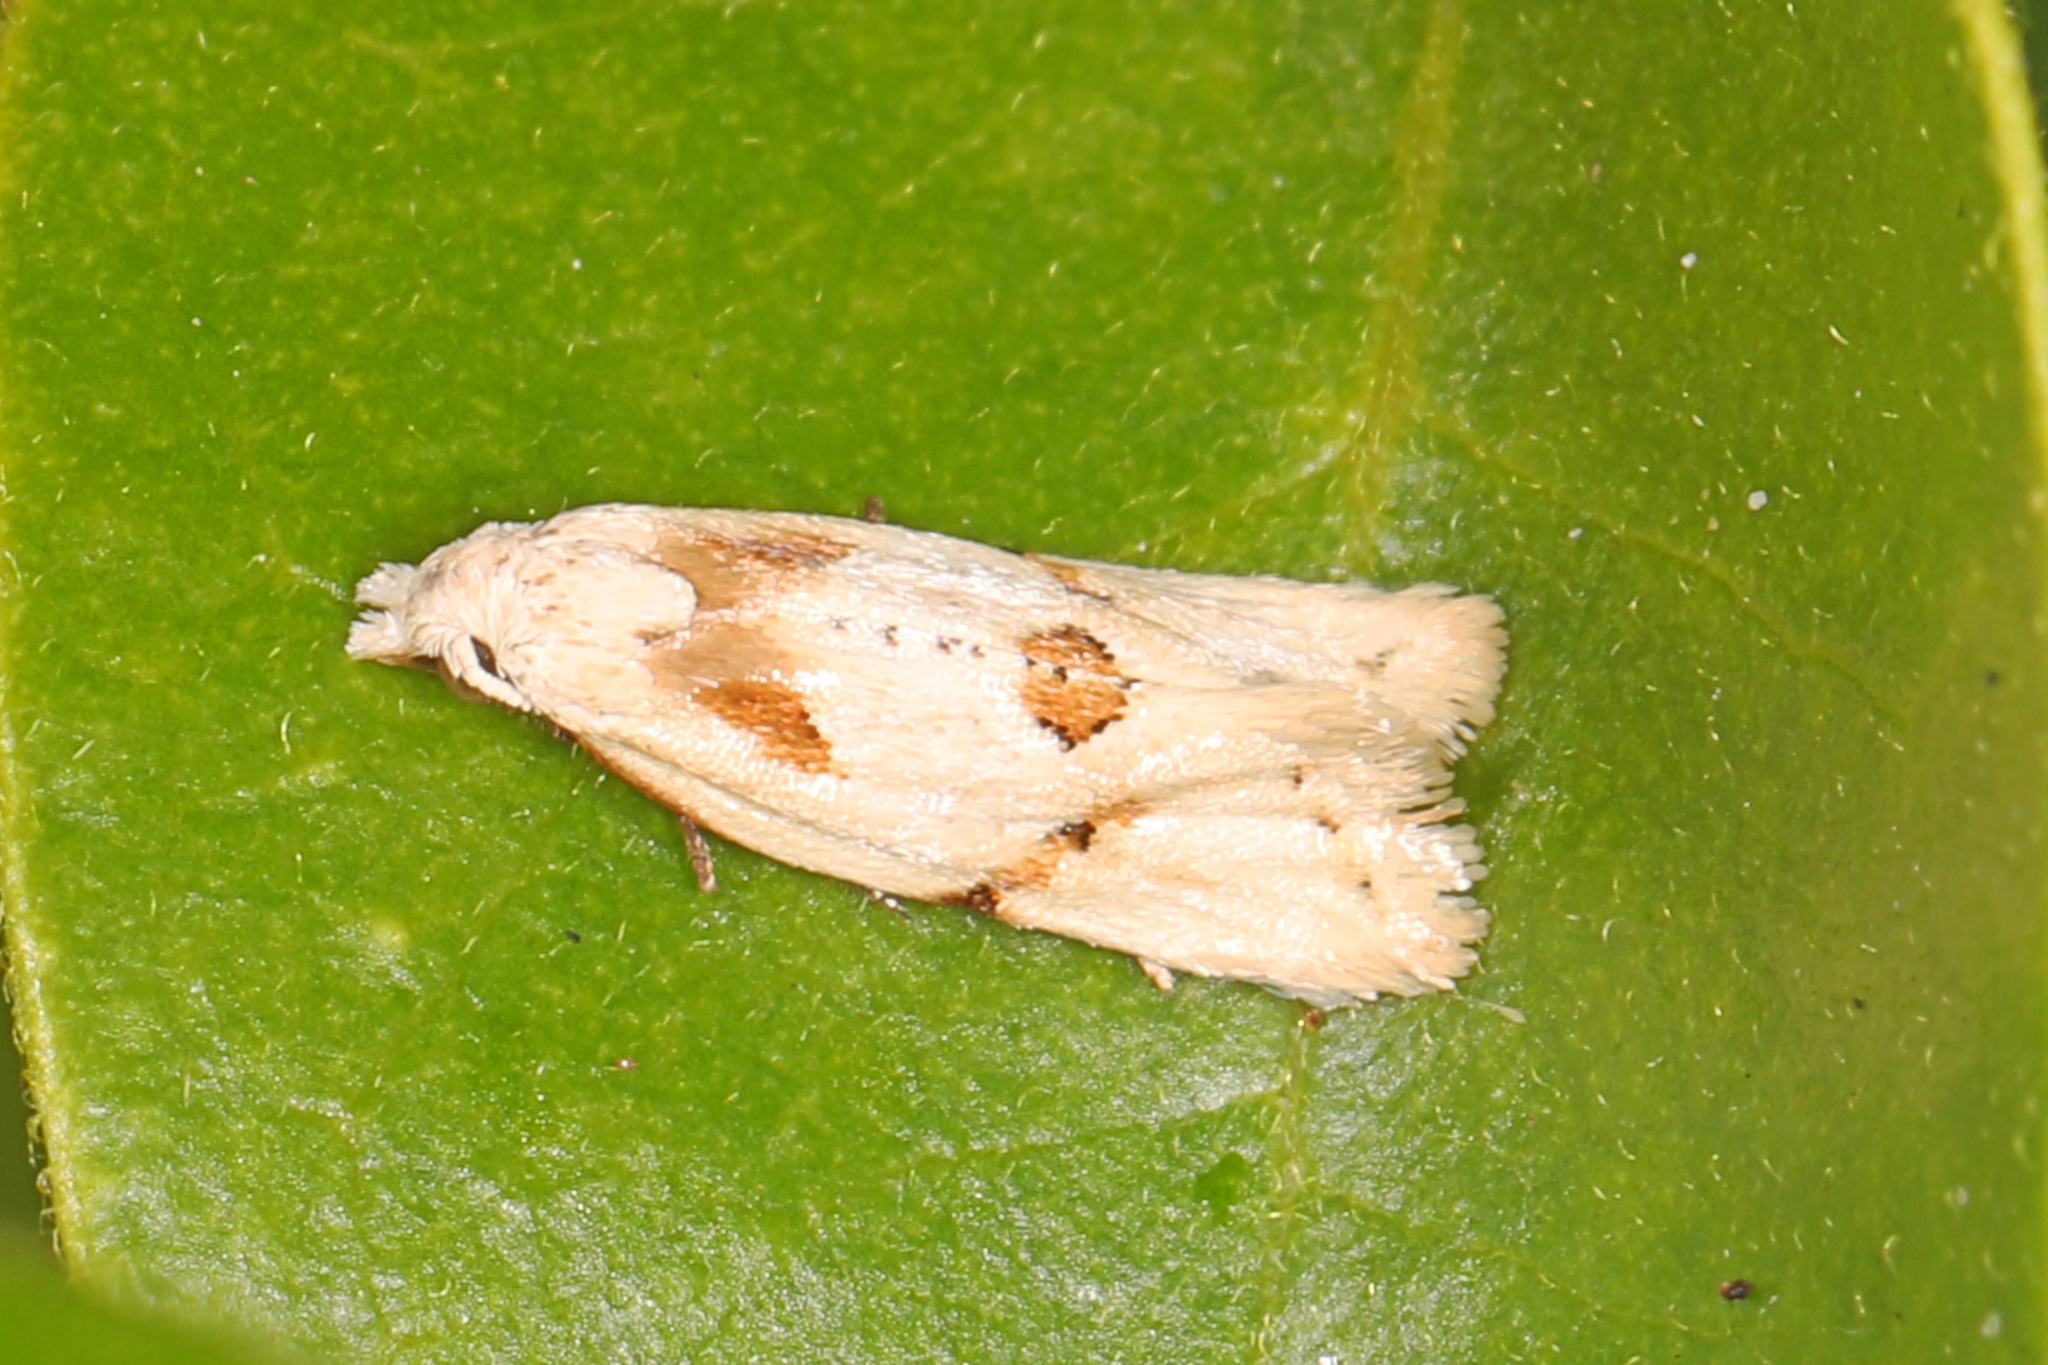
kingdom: Animalia
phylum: Arthropoda
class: Insecta
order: Lepidoptera
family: Tortricidae
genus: Aethes
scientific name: Aethes seriatana
